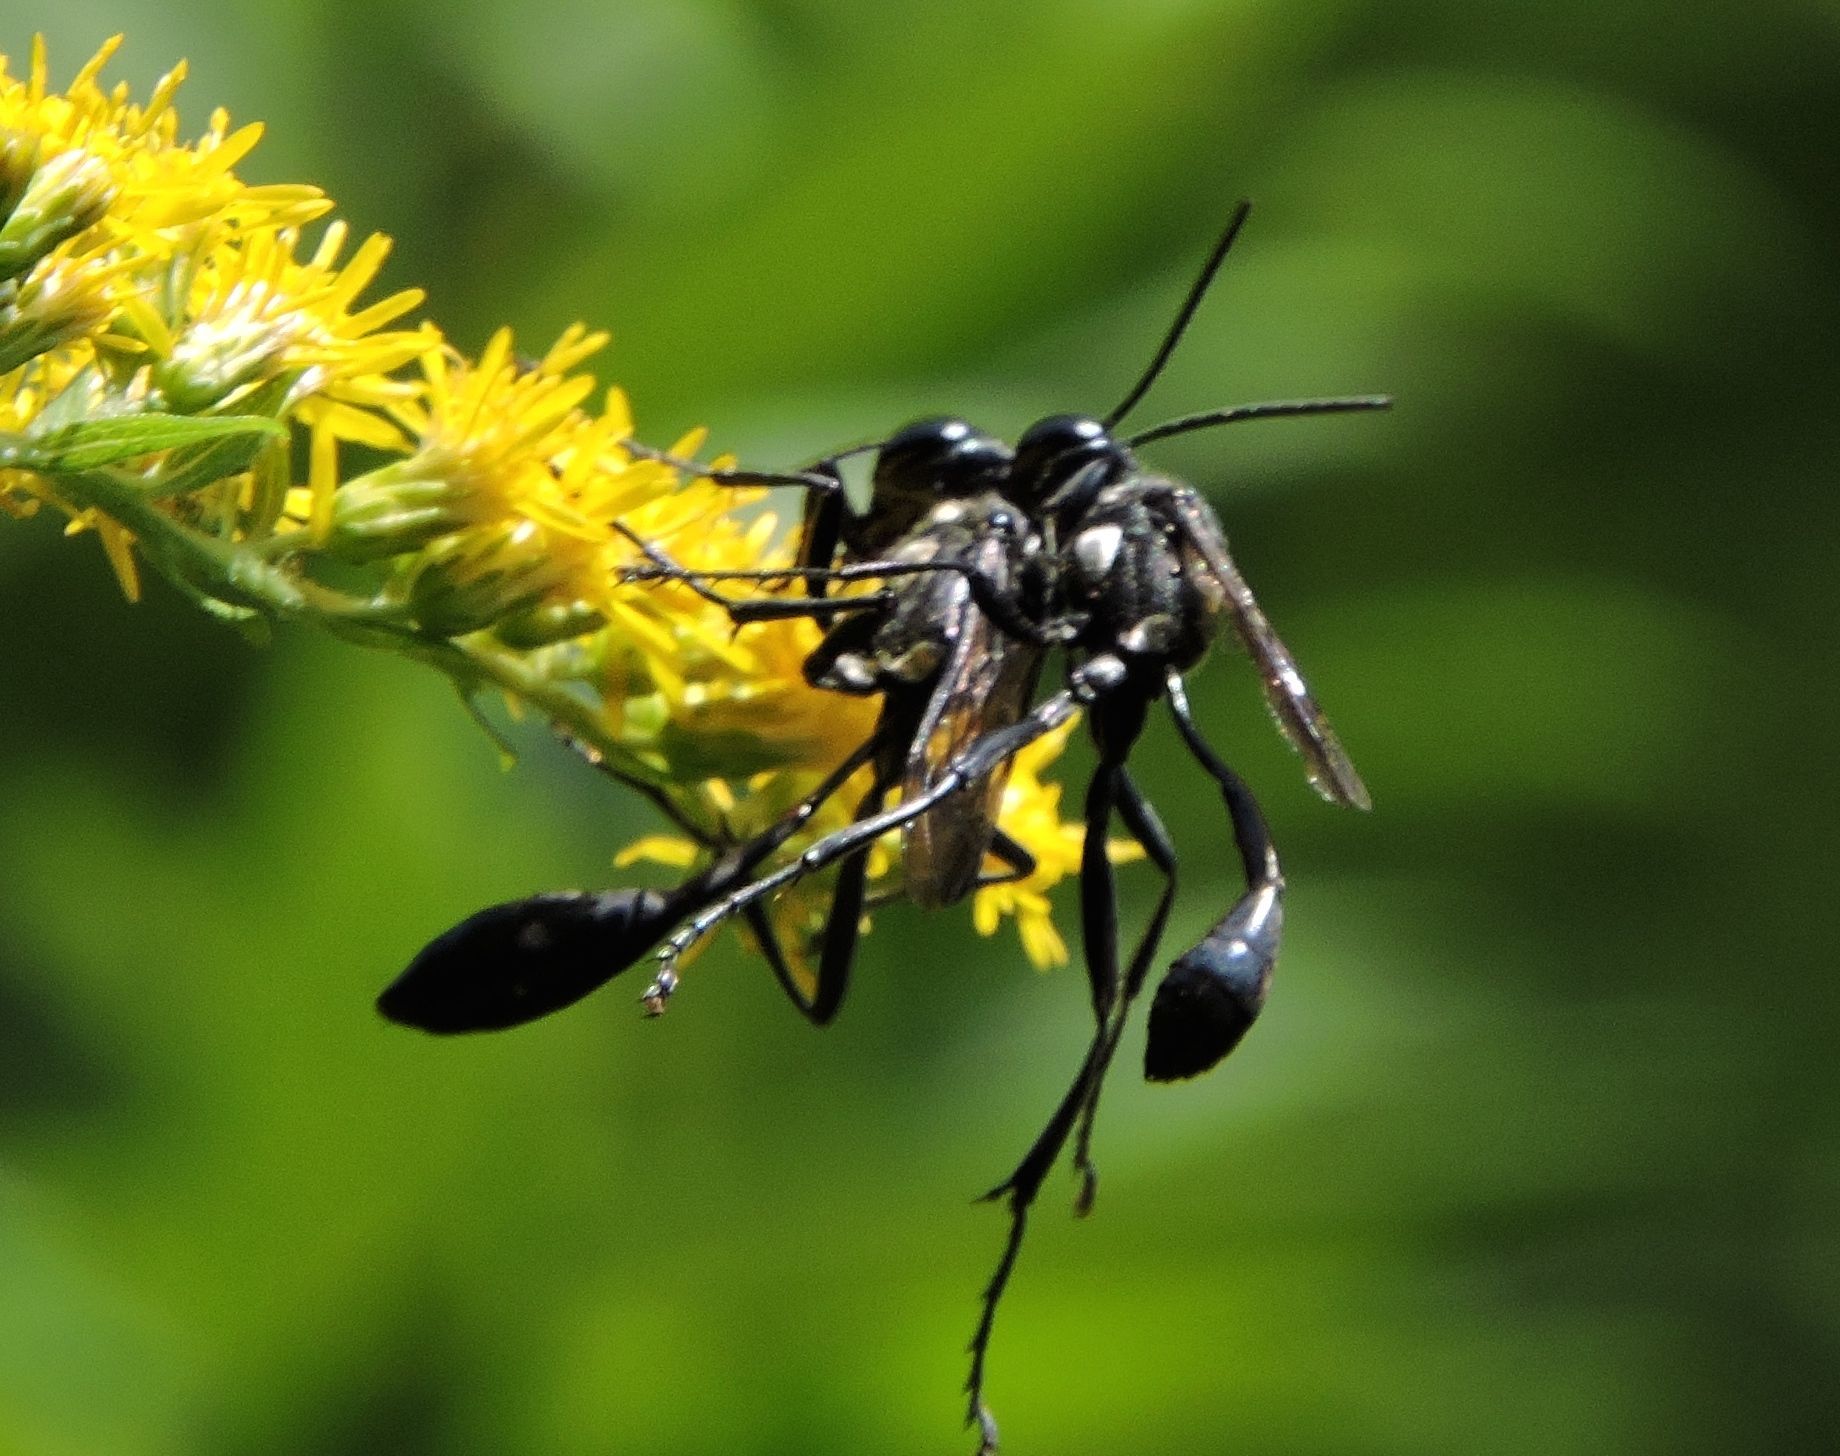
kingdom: Animalia
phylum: Arthropoda
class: Insecta
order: Hymenoptera
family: Sphecidae
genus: Eremnophila
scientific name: Eremnophila aureonotata
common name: Gold-marked thread-waisted wasp
